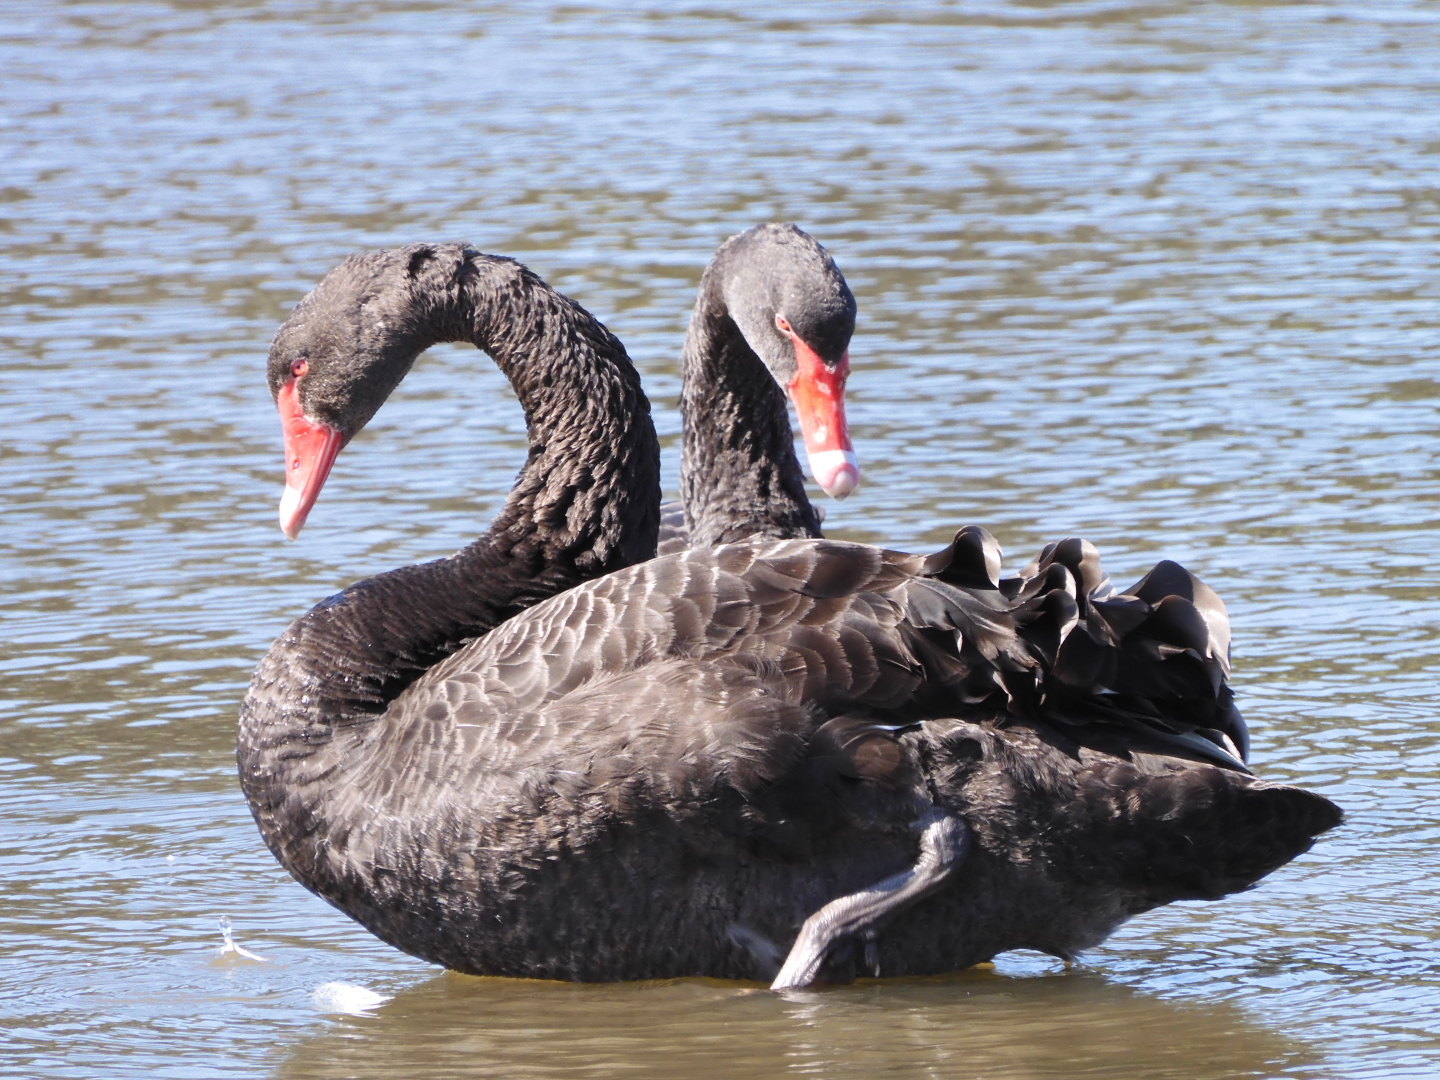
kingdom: Animalia
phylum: Chordata
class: Aves
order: Anseriformes
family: Anatidae
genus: Cygnus
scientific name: Cygnus atratus
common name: Black swan
